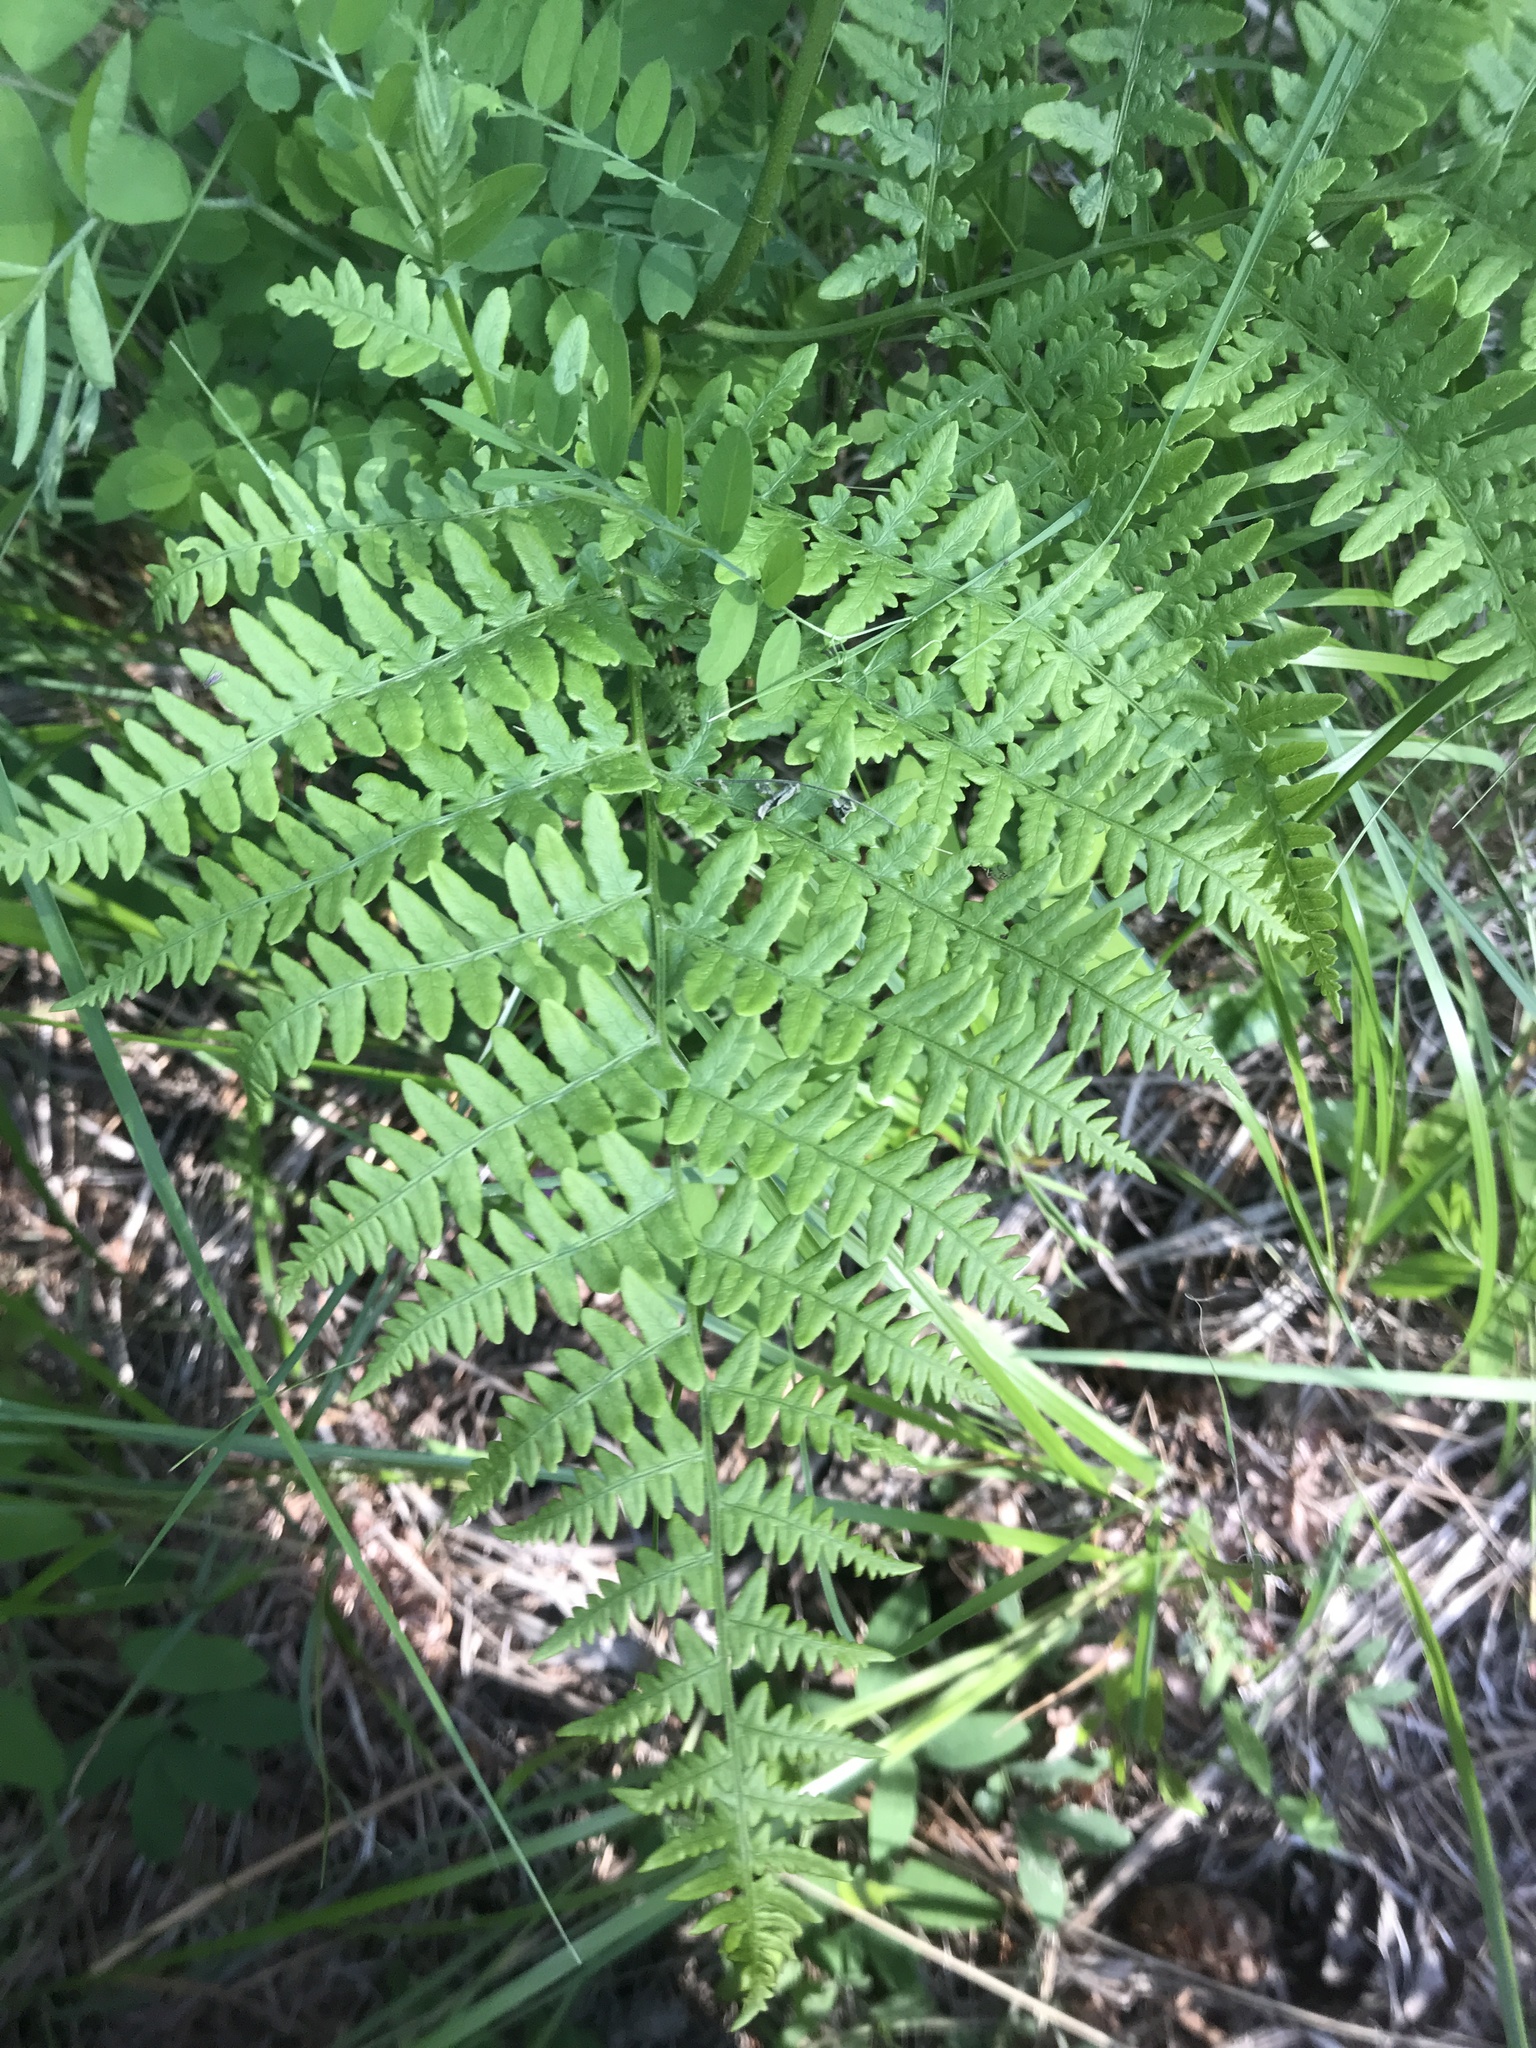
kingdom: Plantae
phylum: Tracheophyta
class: Polypodiopsida
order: Polypodiales
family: Dennstaedtiaceae
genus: Pteridium
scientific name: Pteridium aquilinum
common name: Bracken
